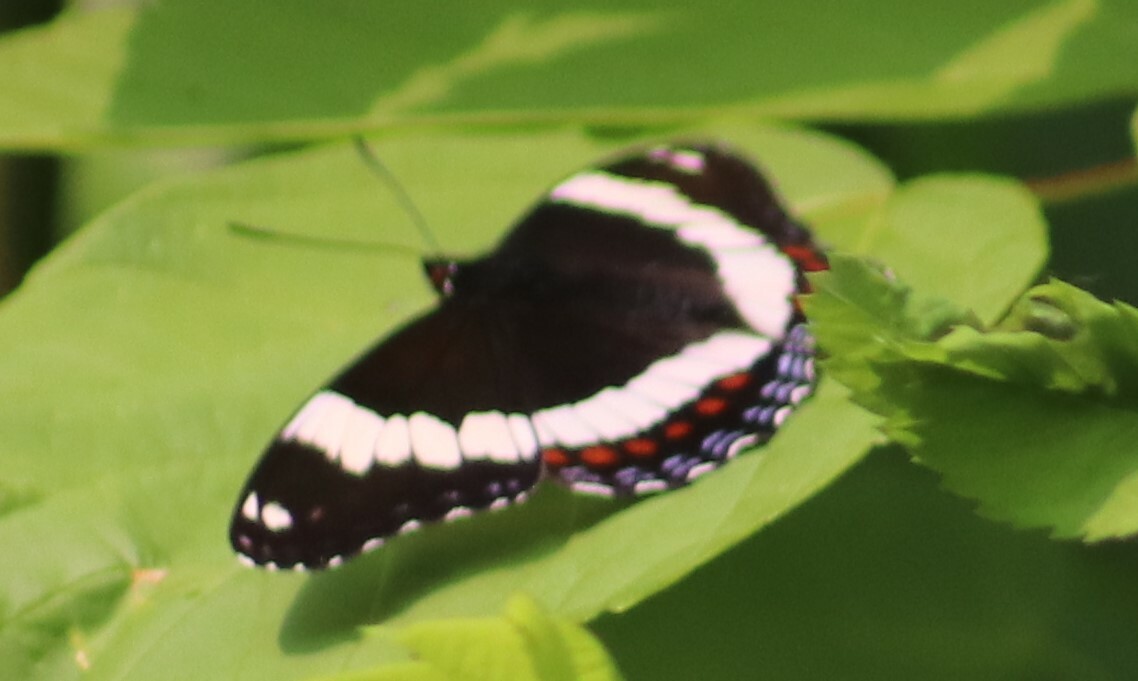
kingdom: Animalia
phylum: Arthropoda
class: Insecta
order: Lepidoptera
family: Nymphalidae
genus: Limenitis
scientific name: Limenitis arthemis
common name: Red-spotted admiral
